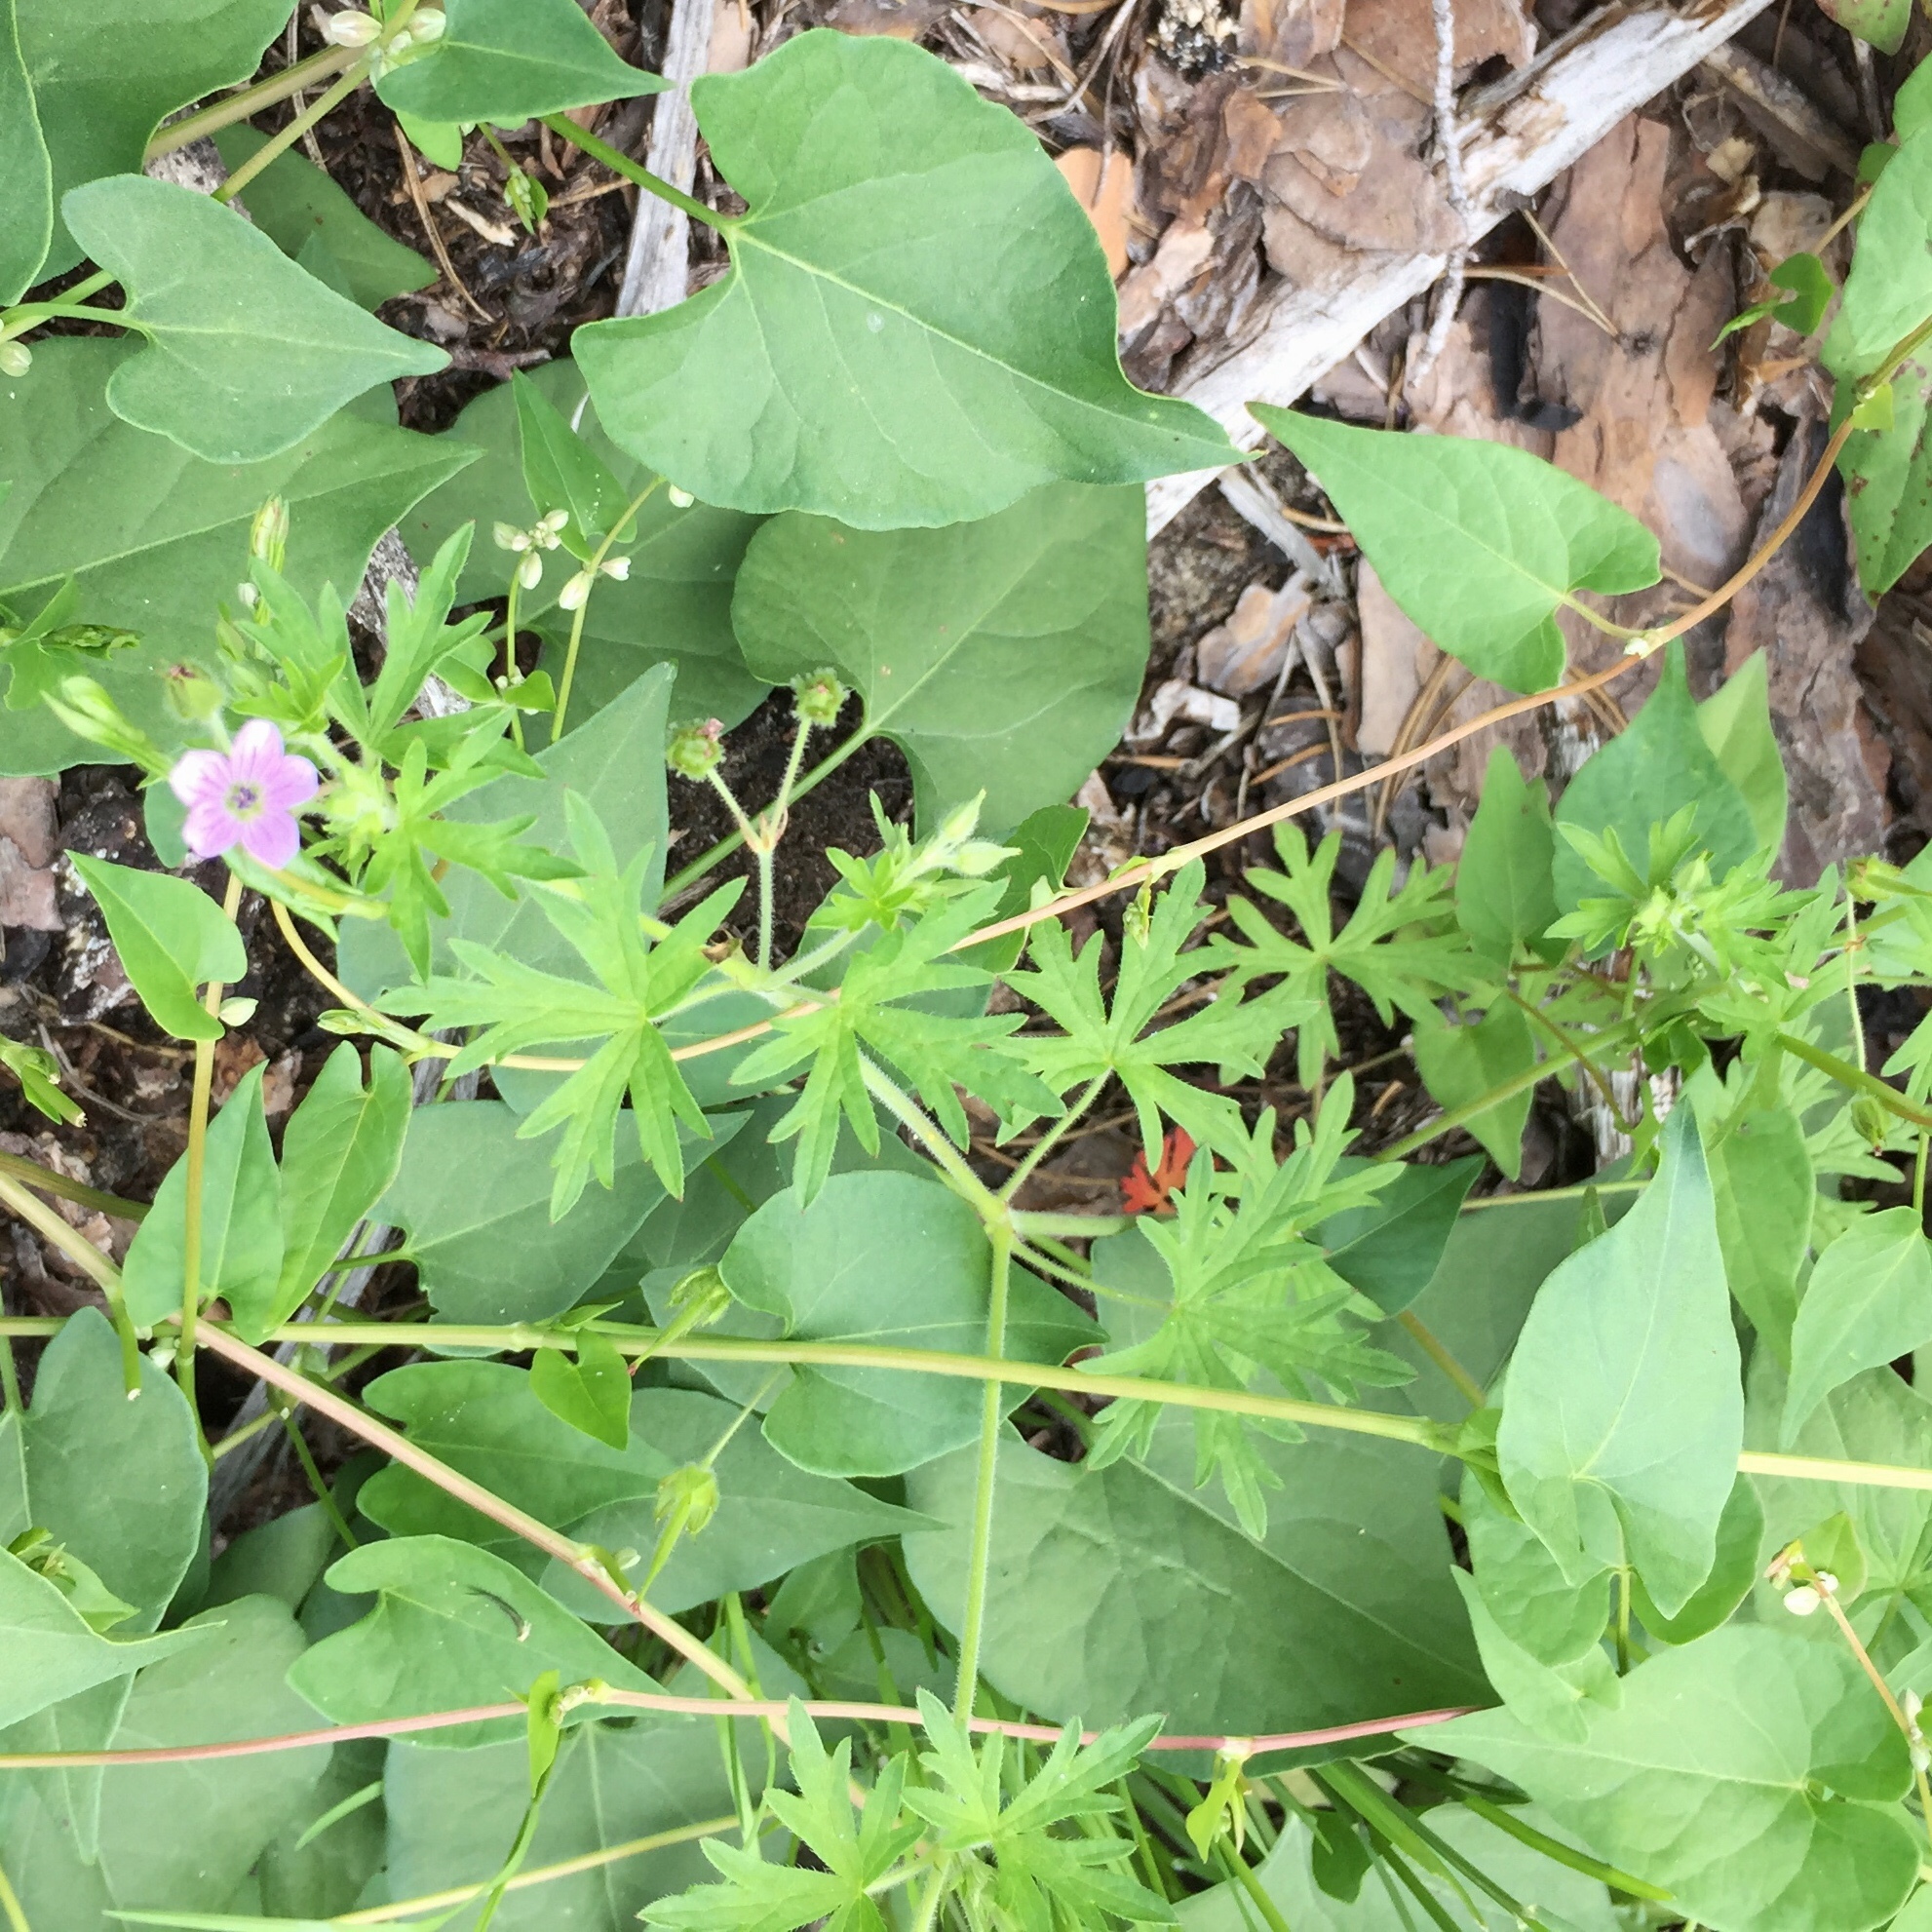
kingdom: Plantae
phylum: Tracheophyta
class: Magnoliopsida
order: Geraniales
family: Geraniaceae
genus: Geranium
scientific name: Geranium bicknellii
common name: Bicknell's cranesbill
